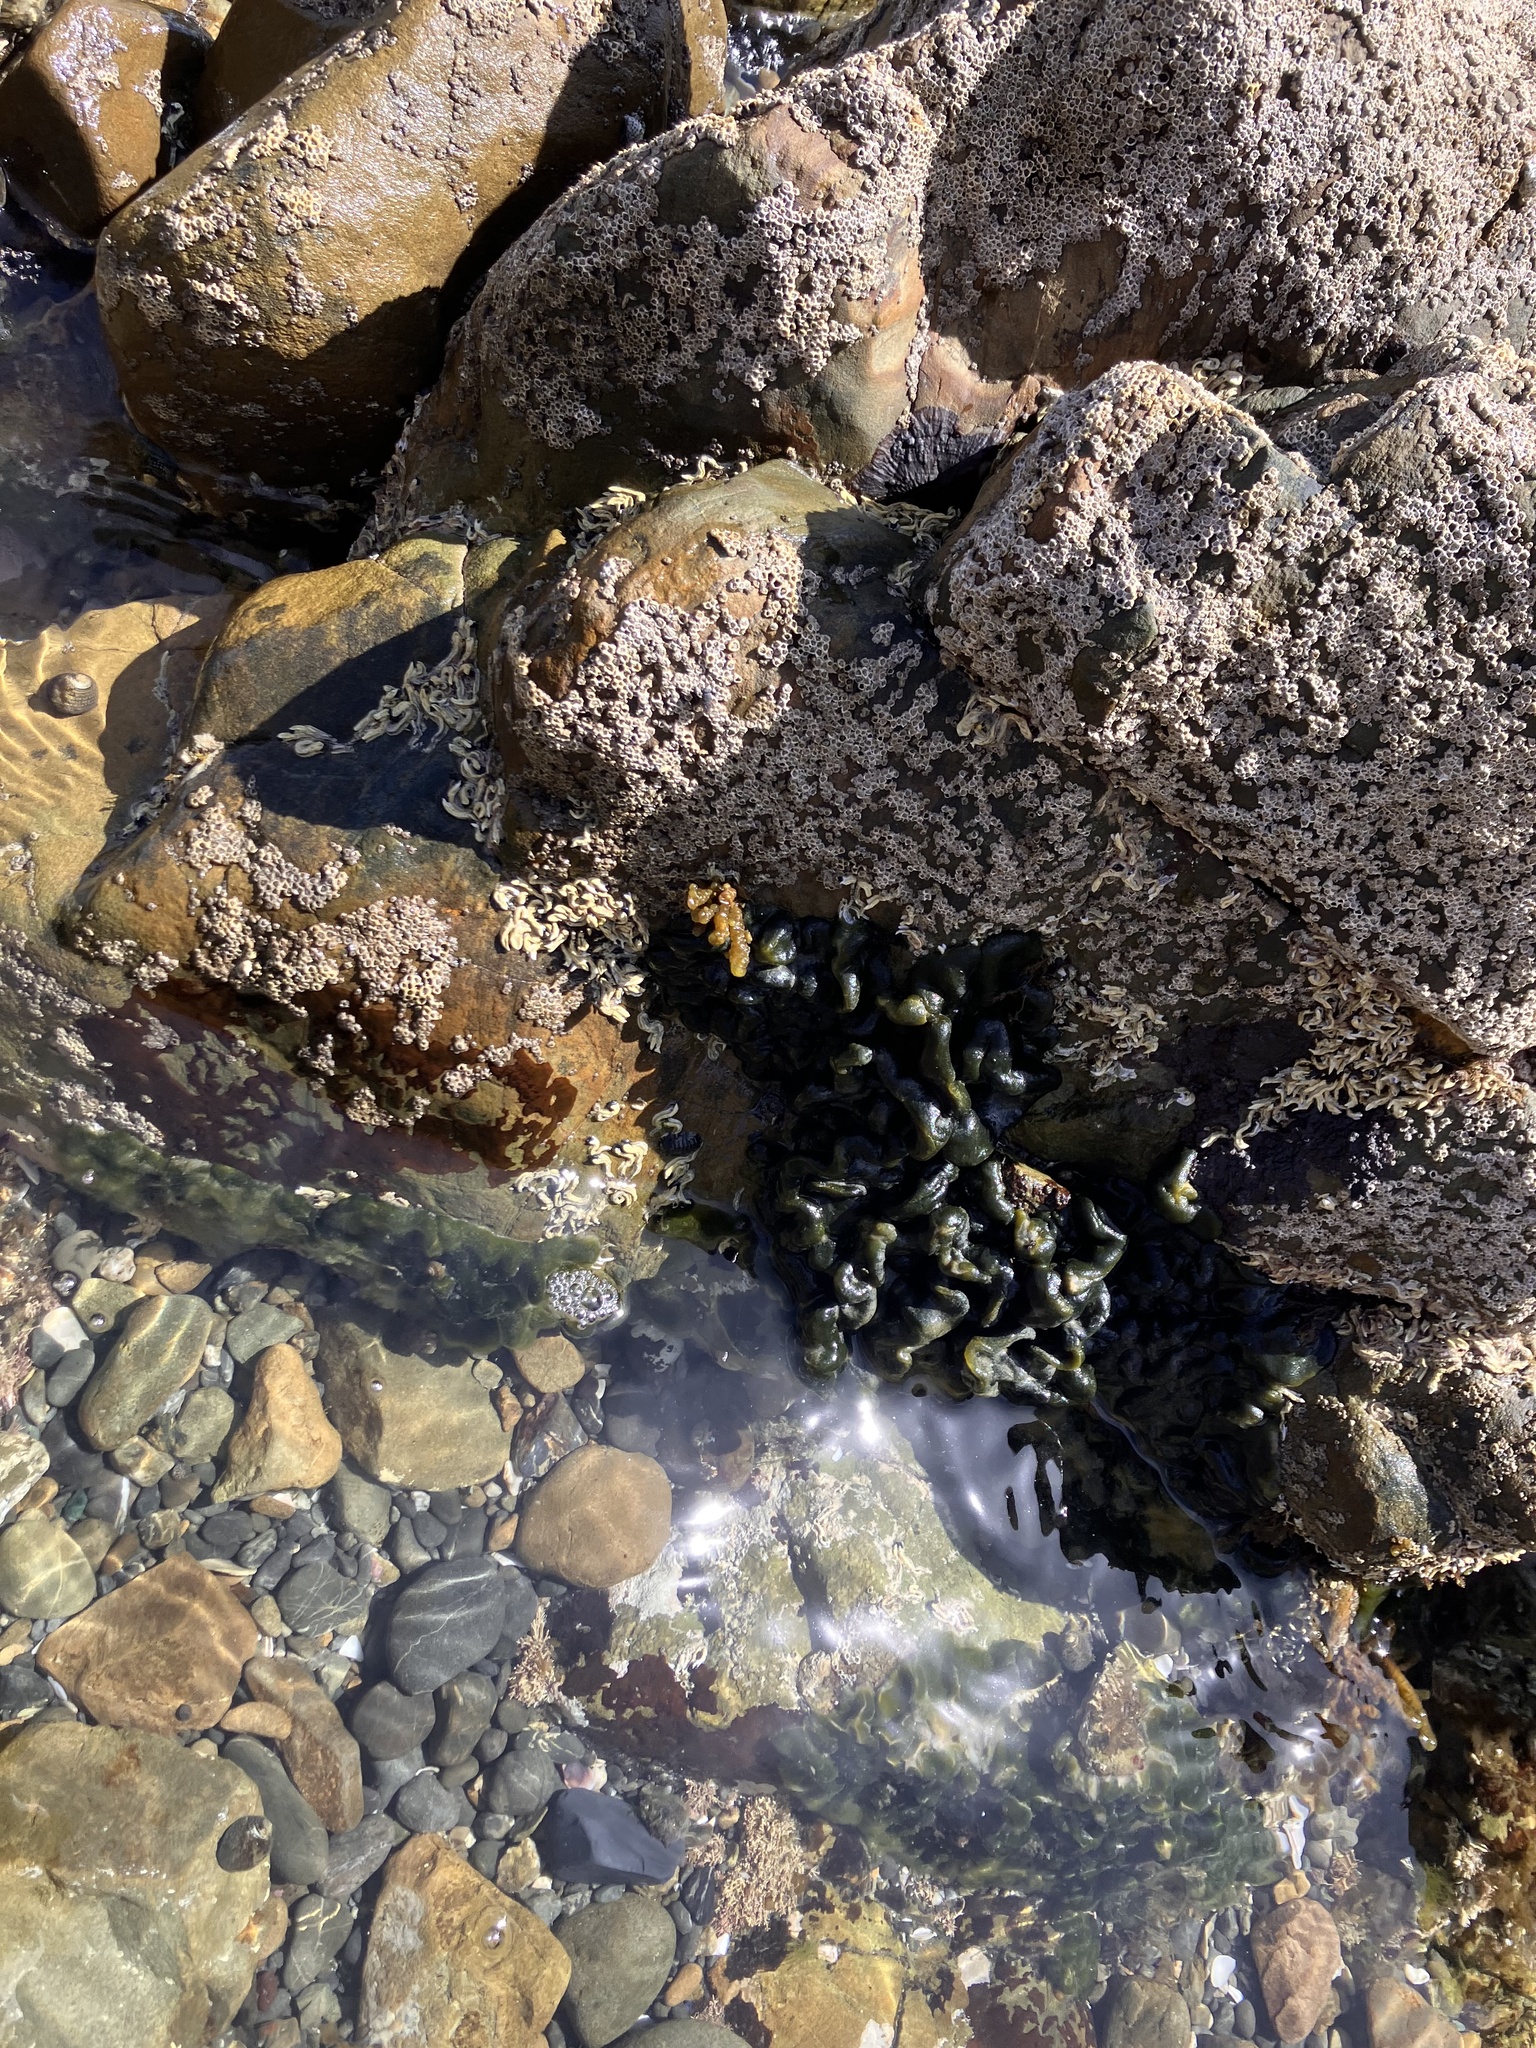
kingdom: Plantae
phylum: Chlorophyta
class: Ulvophyceae
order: Bryopsidales
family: Codiaceae
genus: Codium
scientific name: Codium convolutum
